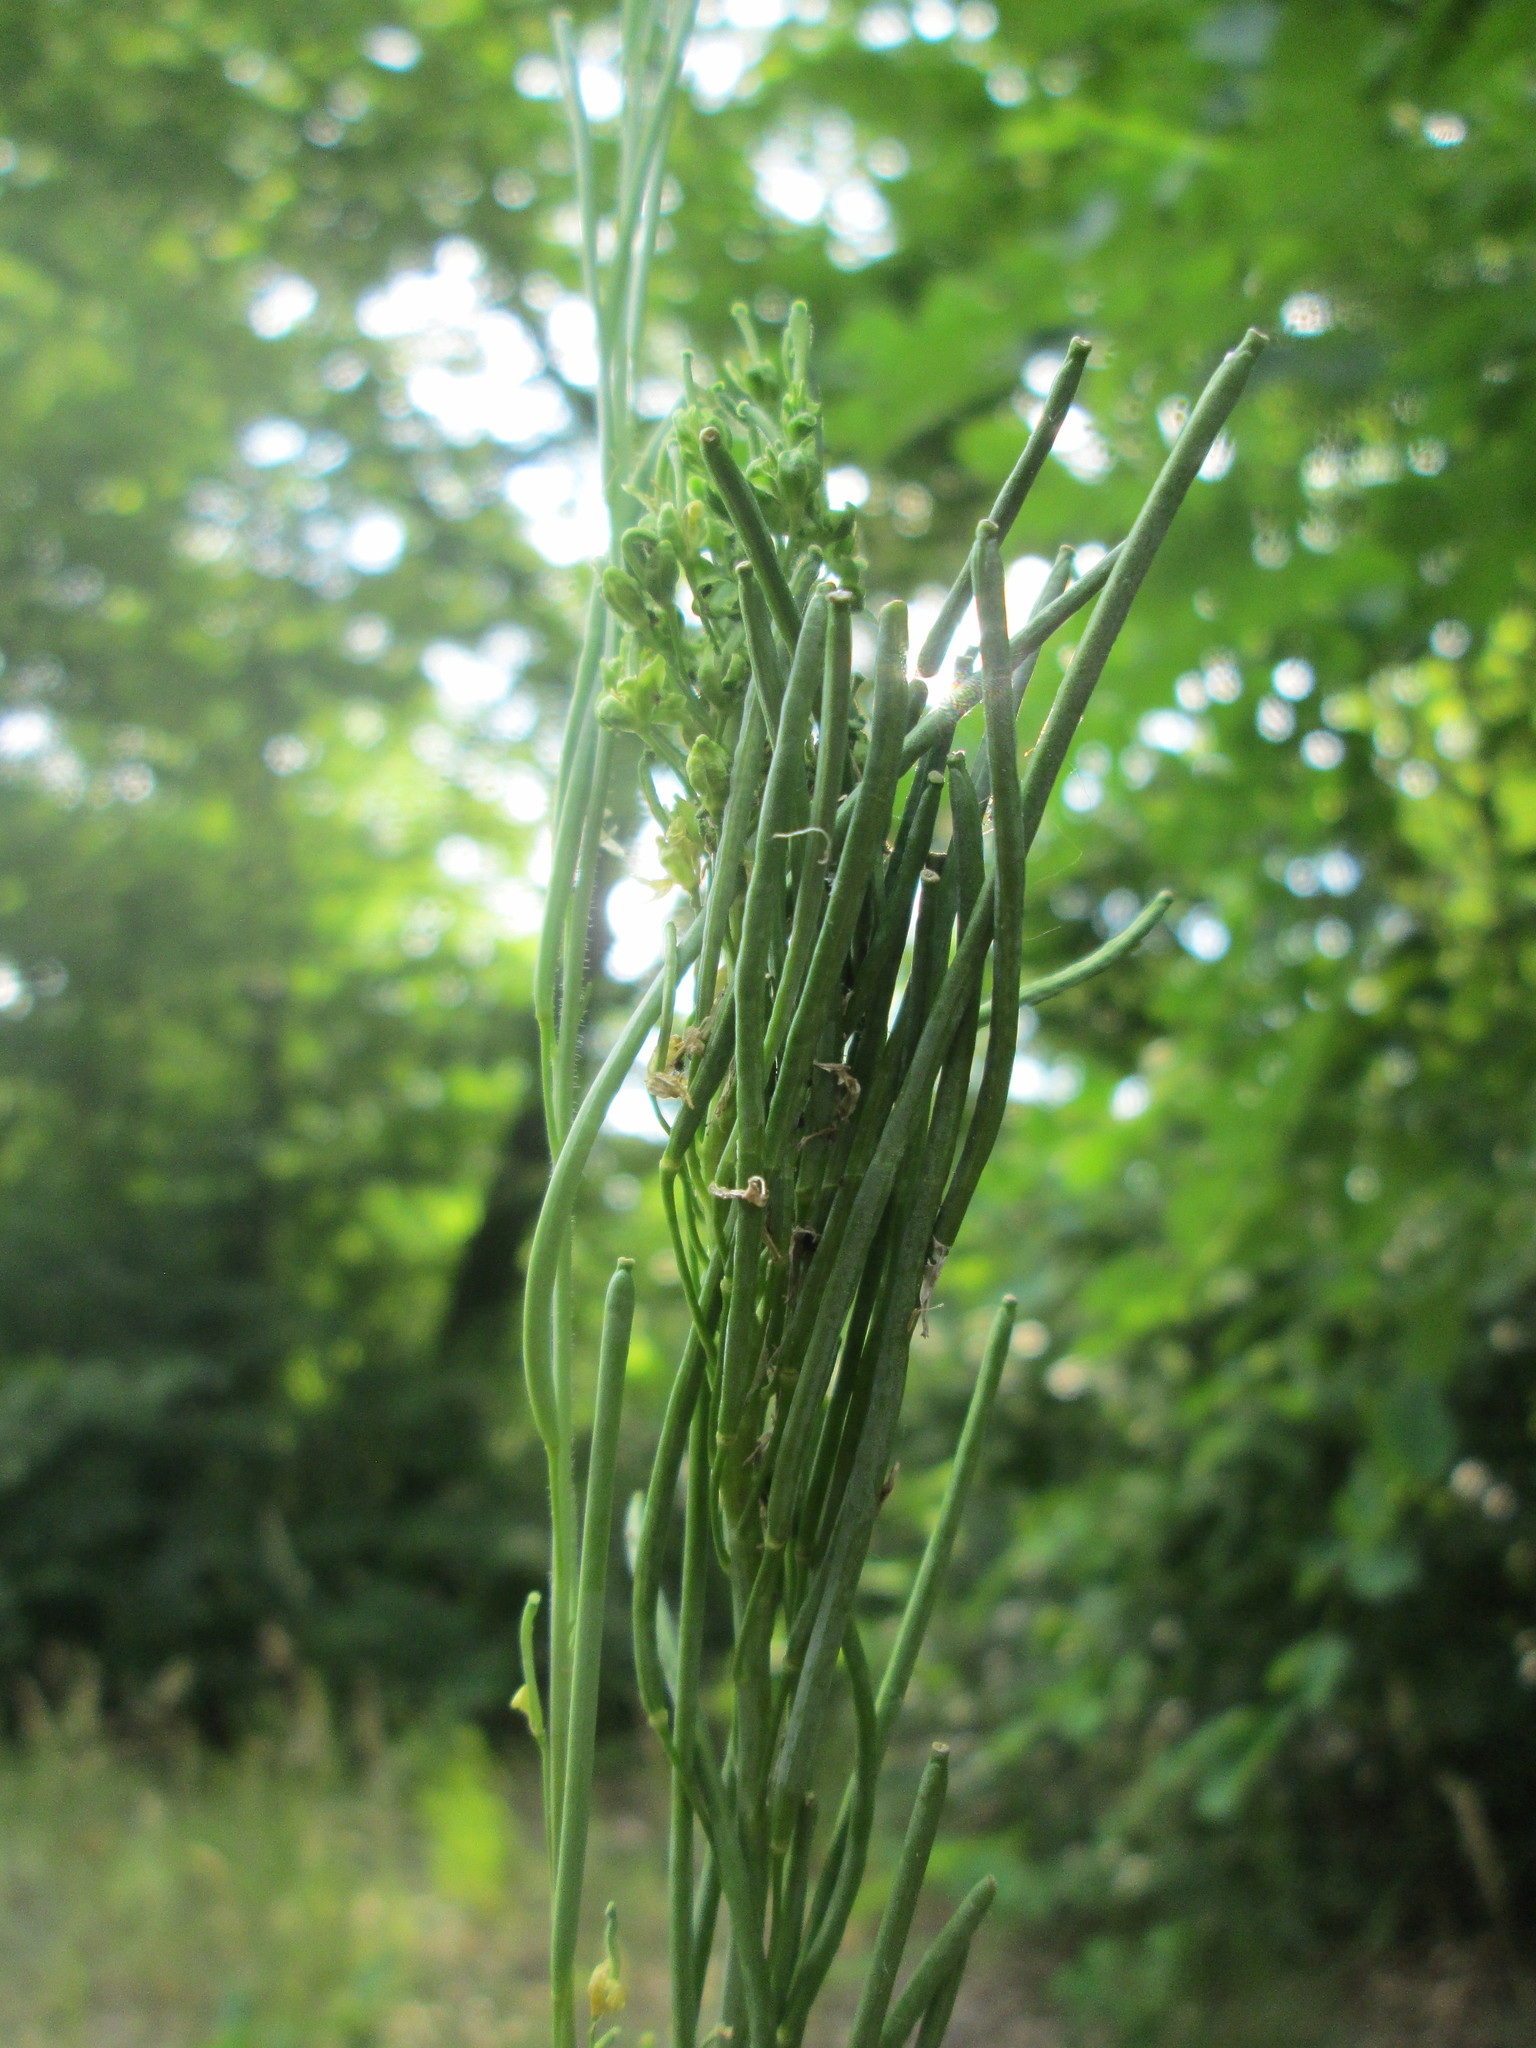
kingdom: Plantae
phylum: Tracheophyta
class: Magnoliopsida
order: Brassicales
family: Brassicaceae
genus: Turritis
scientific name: Turritis glabra
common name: Tower rockcress
